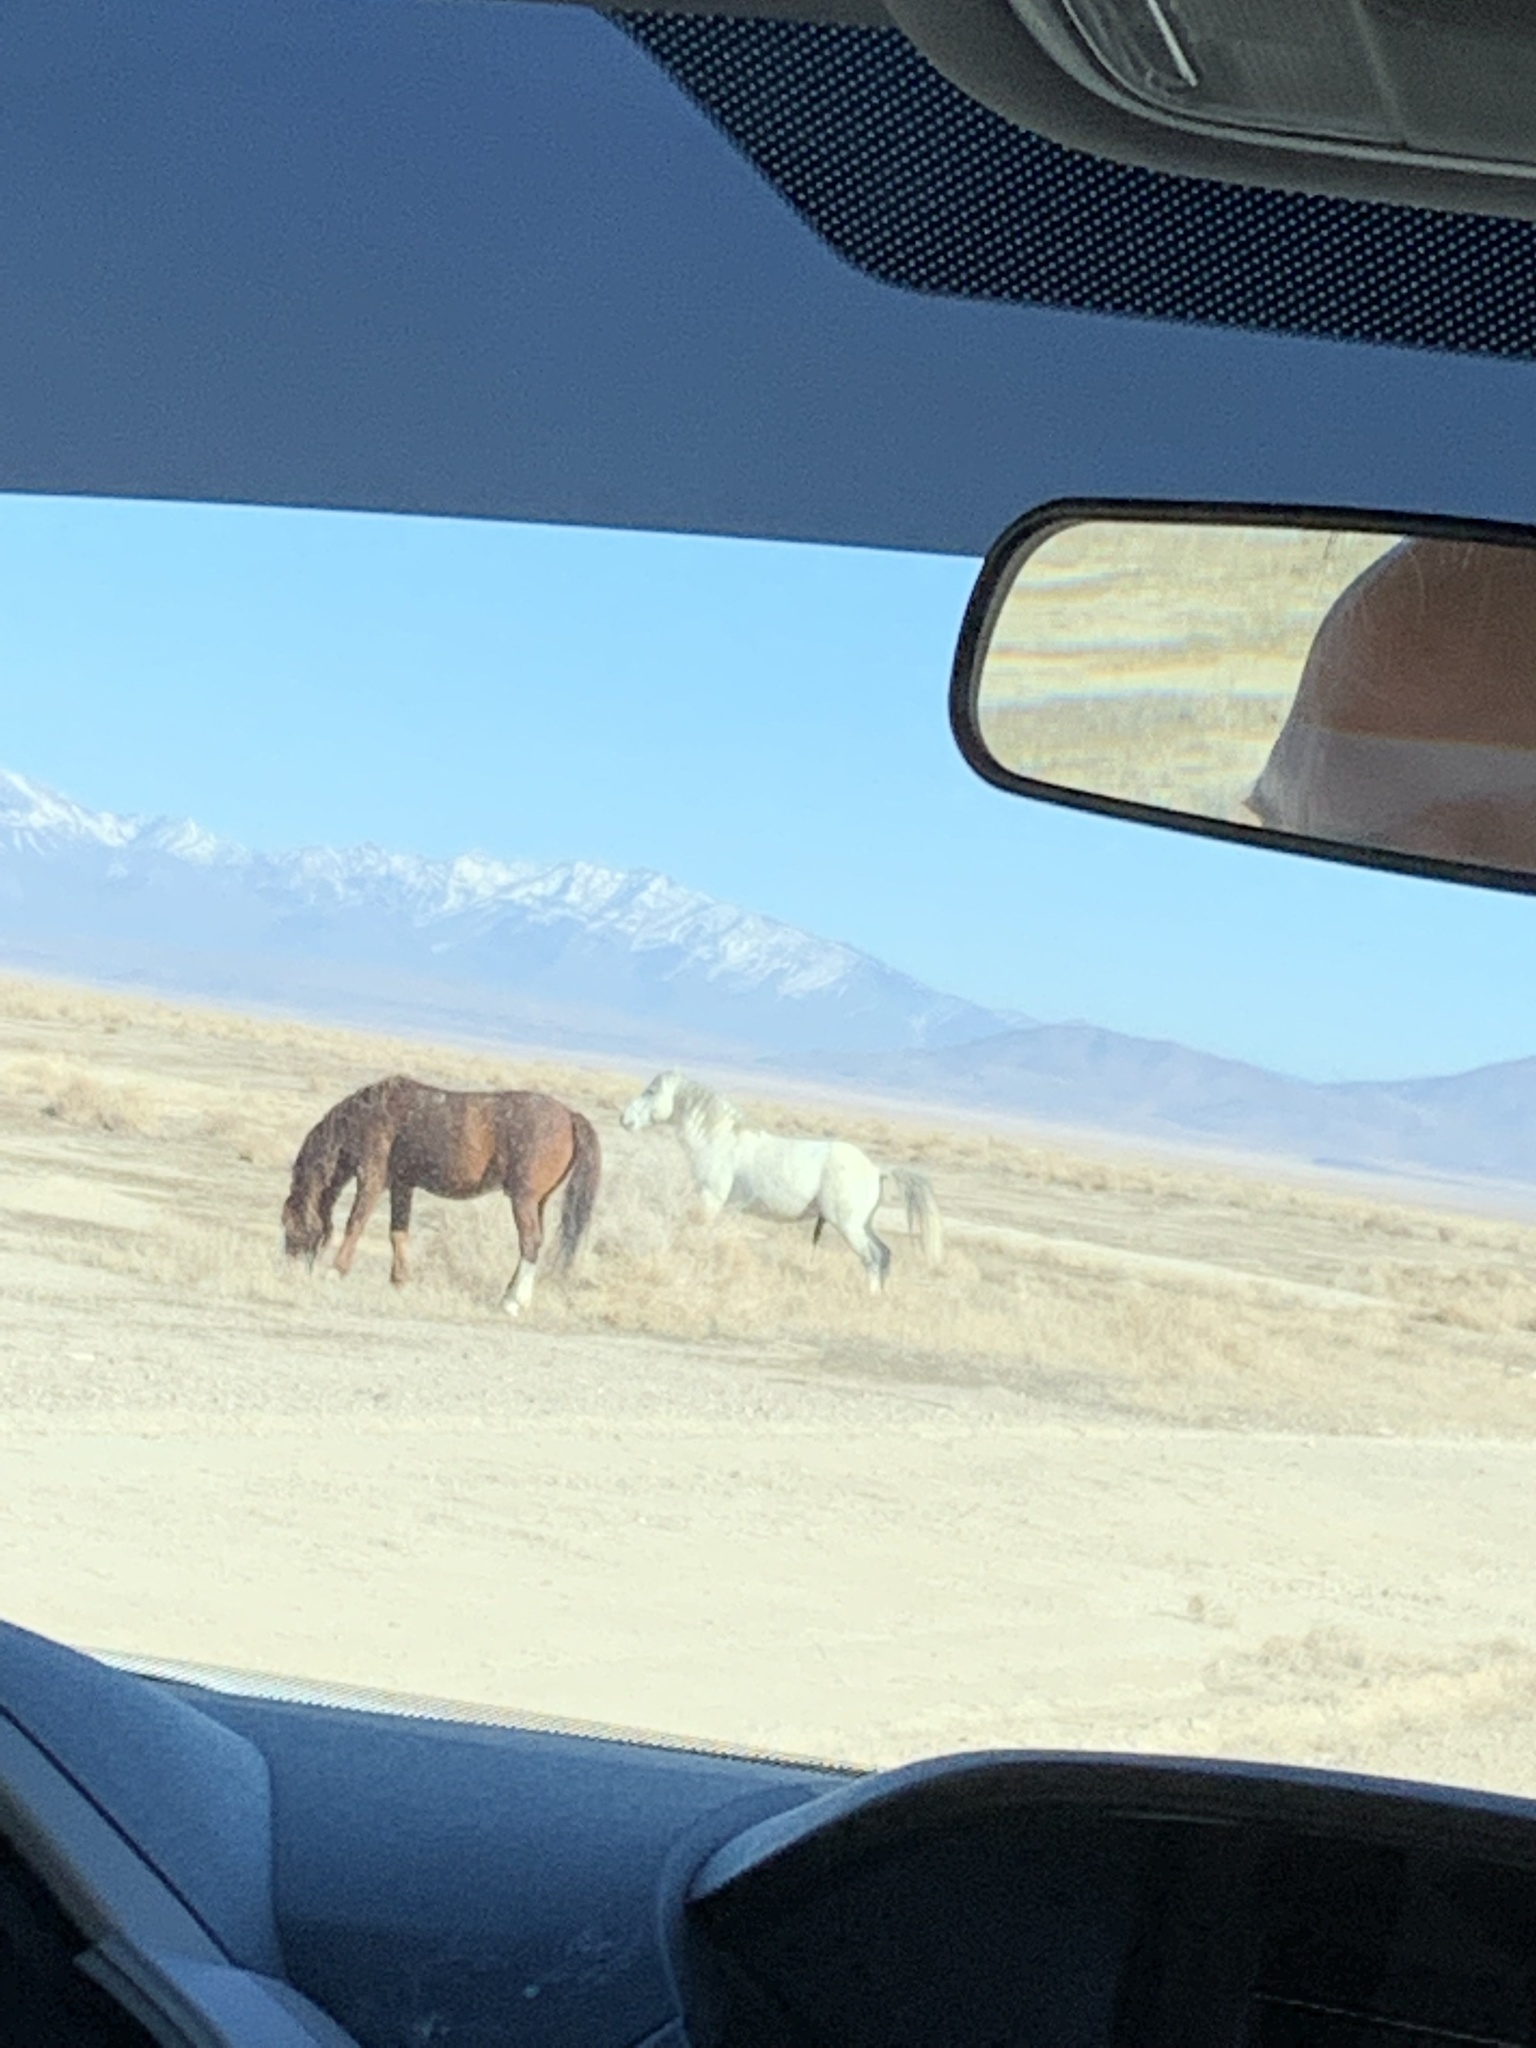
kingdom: Animalia
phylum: Chordata
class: Mammalia
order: Perissodactyla
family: Equidae
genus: Equus
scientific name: Equus caballus
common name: Horse
